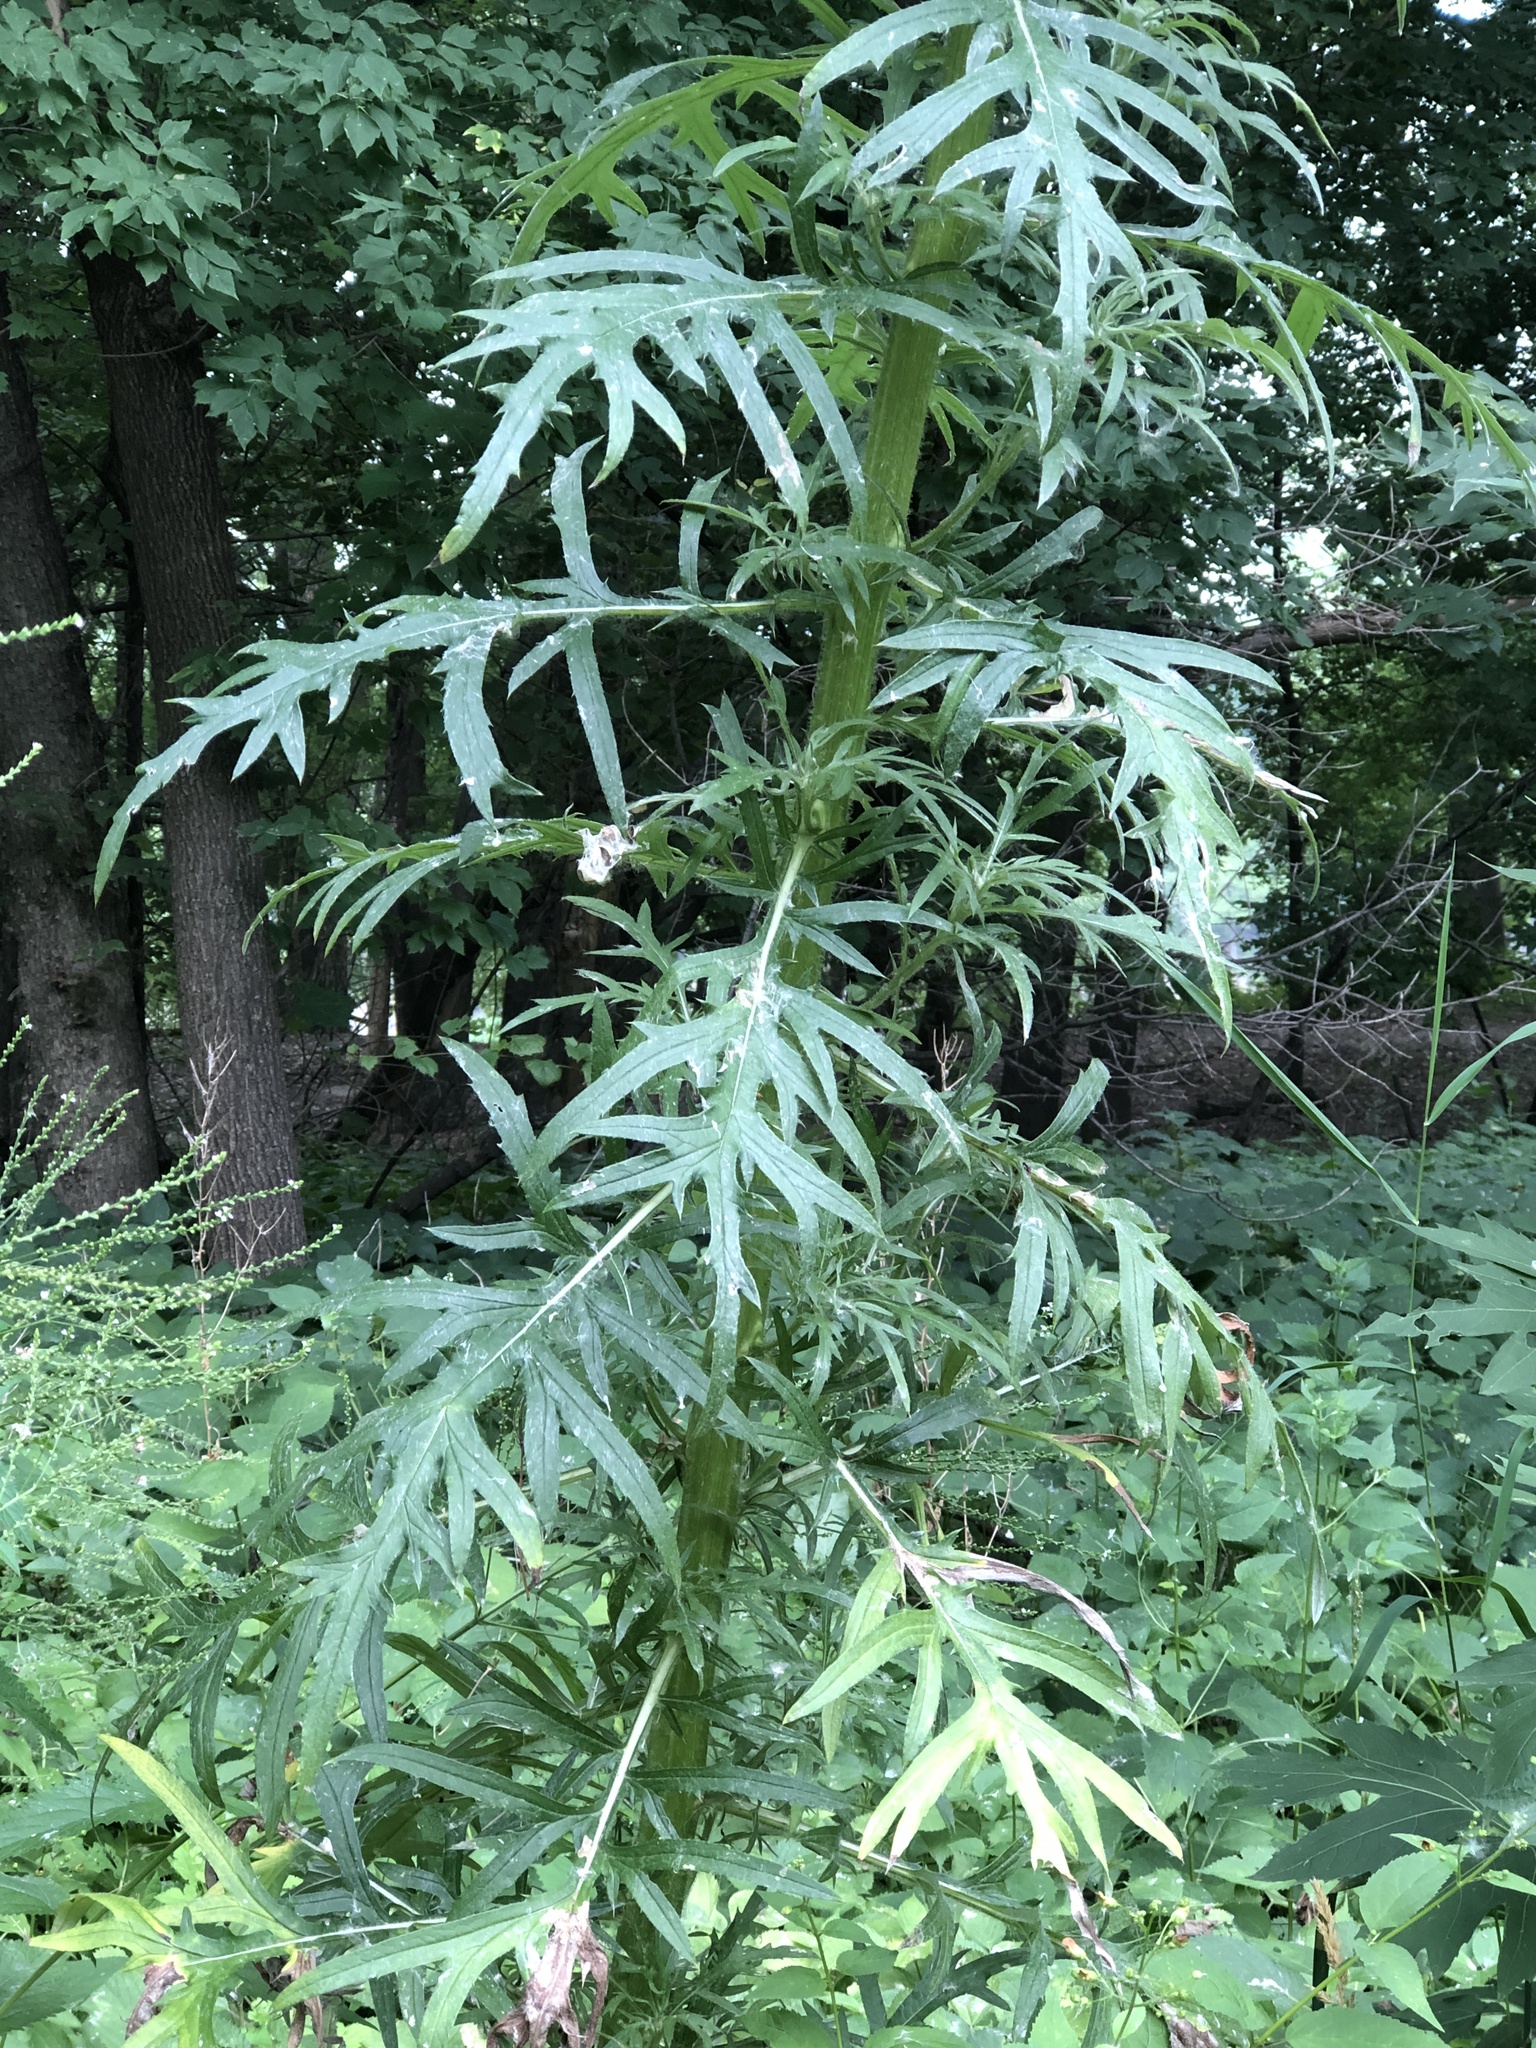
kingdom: Plantae
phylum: Tracheophyta
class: Magnoliopsida
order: Asterales
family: Asteraceae
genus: Cirsium
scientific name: Cirsium discolor
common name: Field thistle
